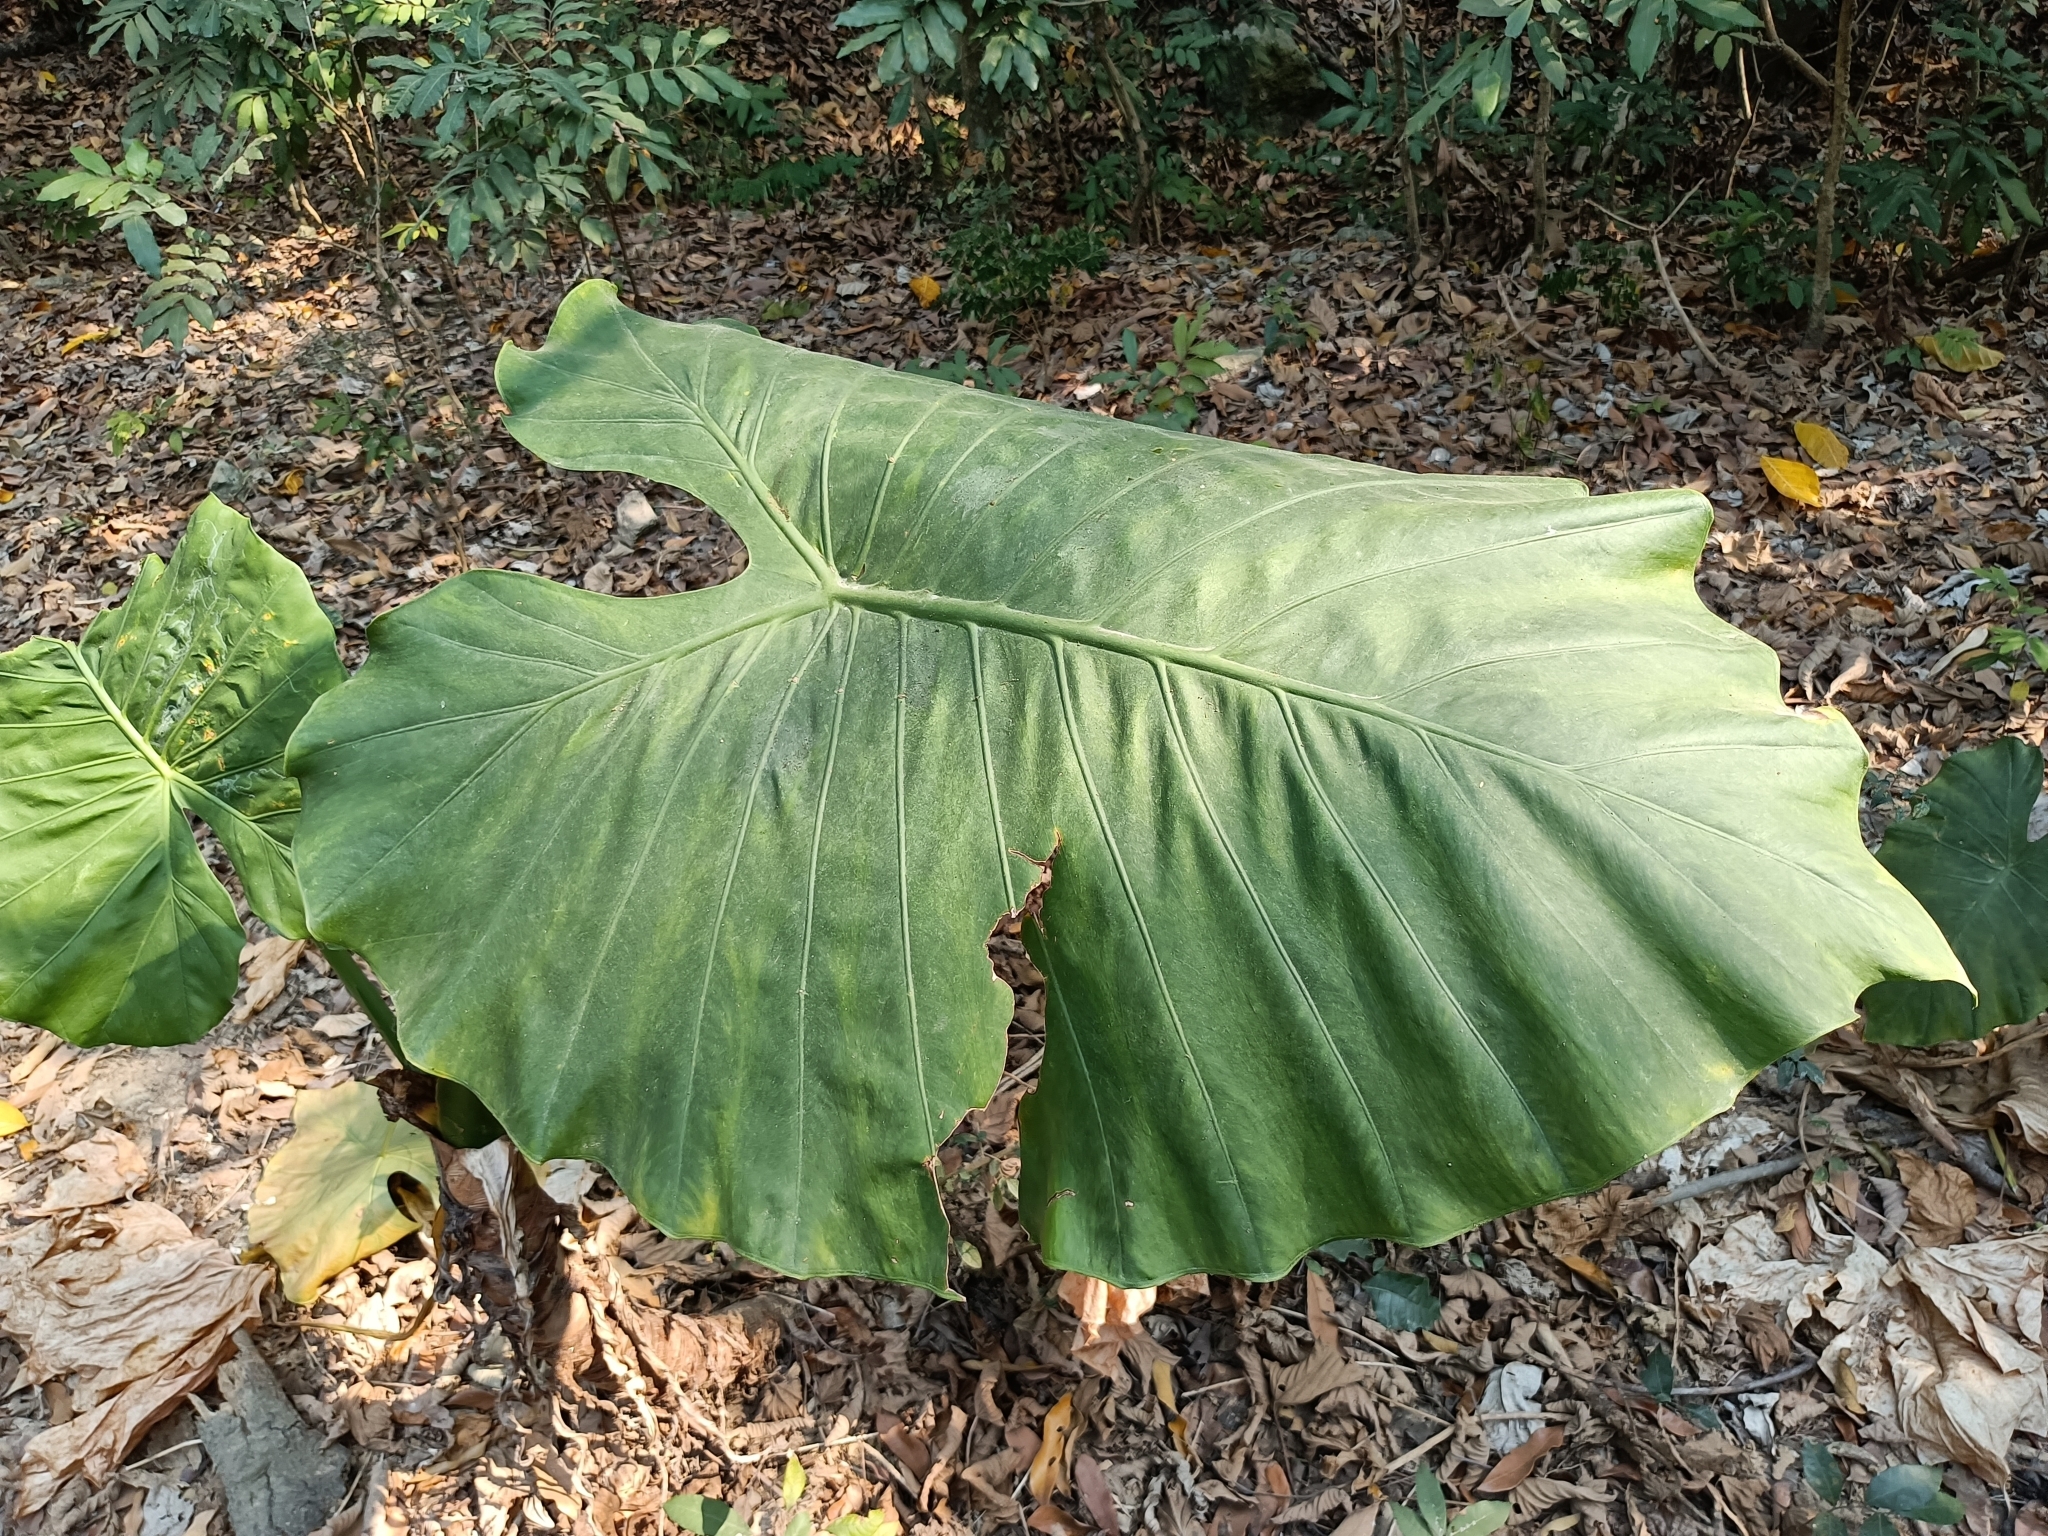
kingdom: Plantae
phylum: Tracheophyta
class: Liliopsida
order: Alismatales
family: Araceae
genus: Alocasia
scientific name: Alocasia odora
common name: Asian taro
